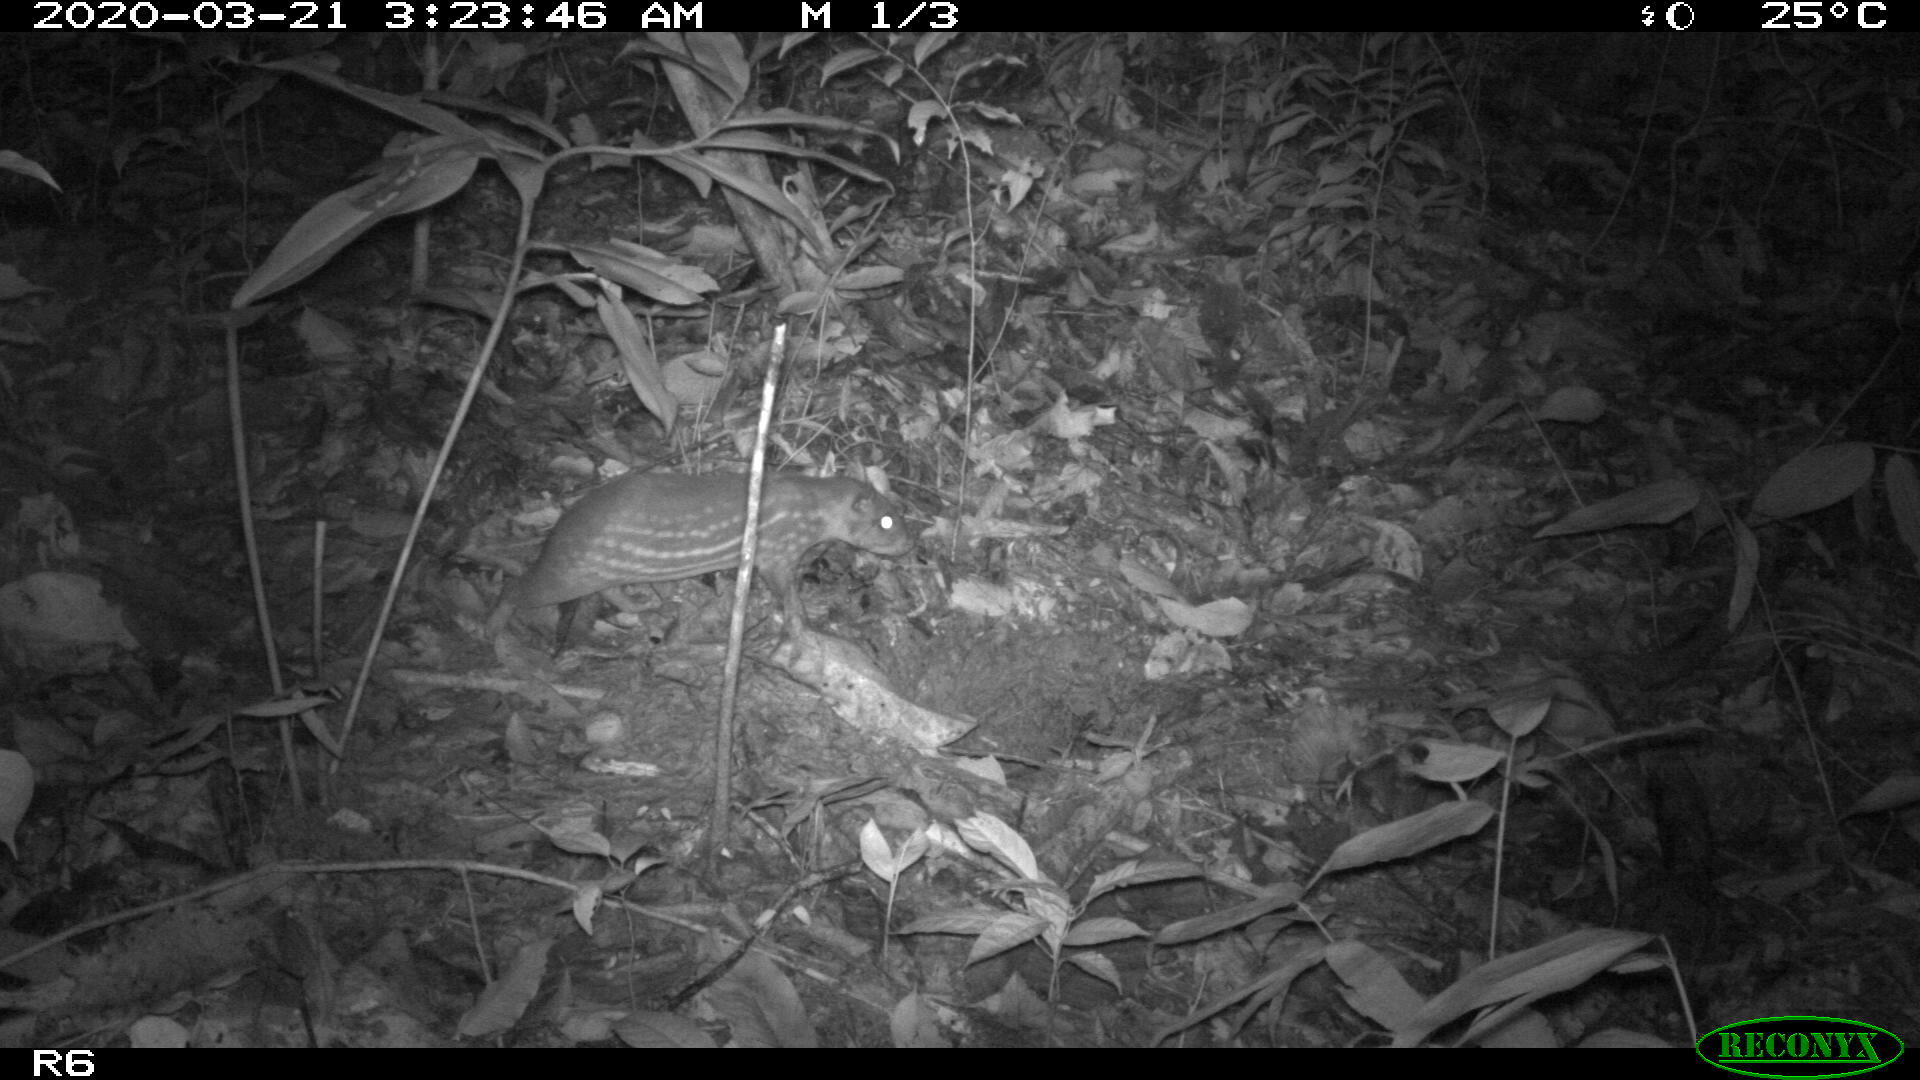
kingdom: Animalia
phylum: Chordata
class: Mammalia
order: Rodentia
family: Cuniculidae
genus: Cuniculus
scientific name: Cuniculus paca
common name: Lowland paca
